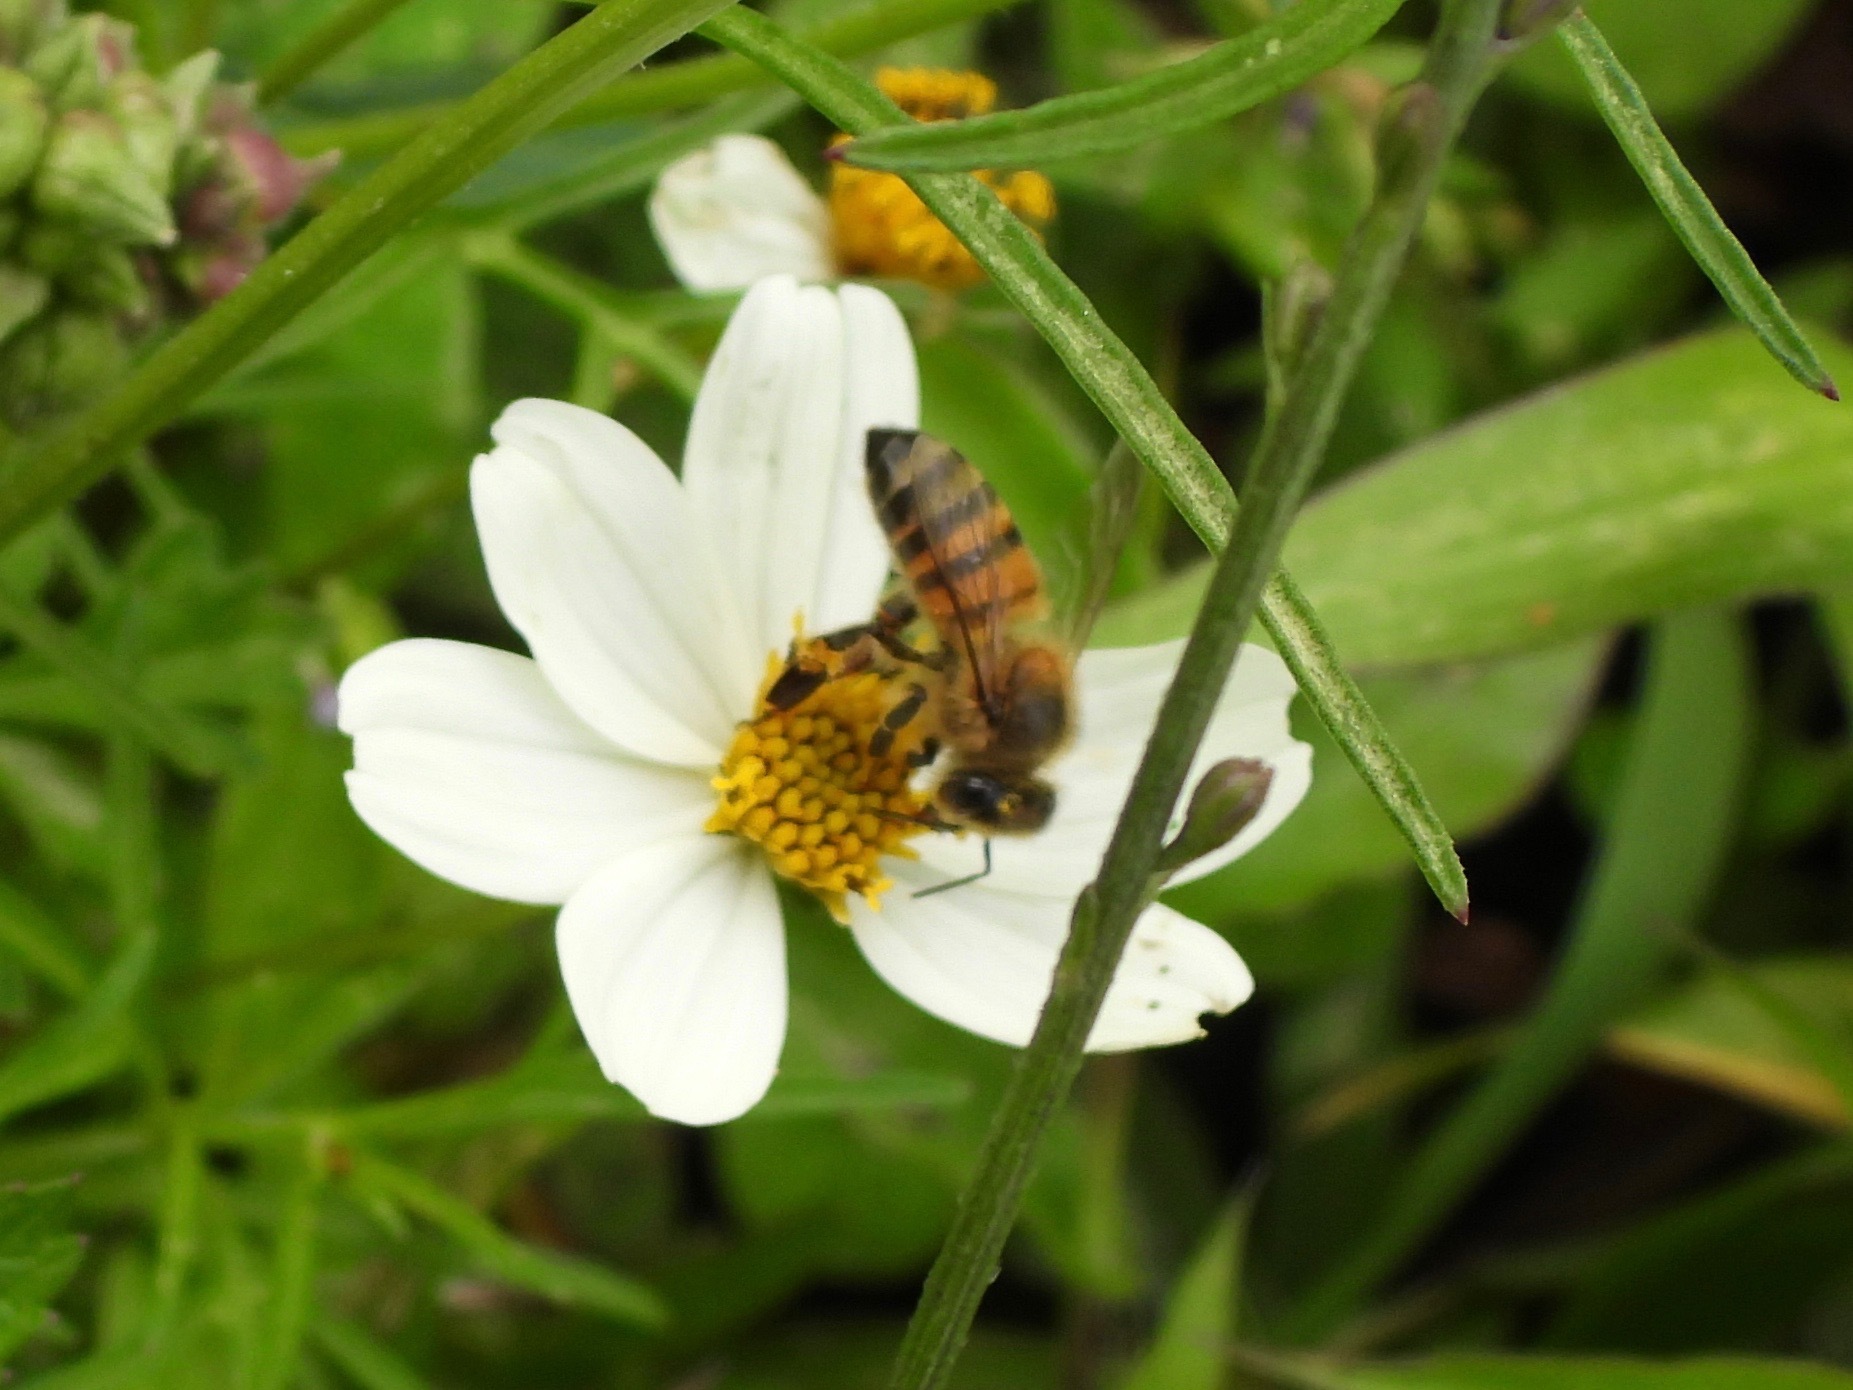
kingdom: Animalia
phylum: Arthropoda
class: Insecta
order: Hymenoptera
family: Apidae
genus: Apis
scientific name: Apis mellifera
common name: Honey bee
